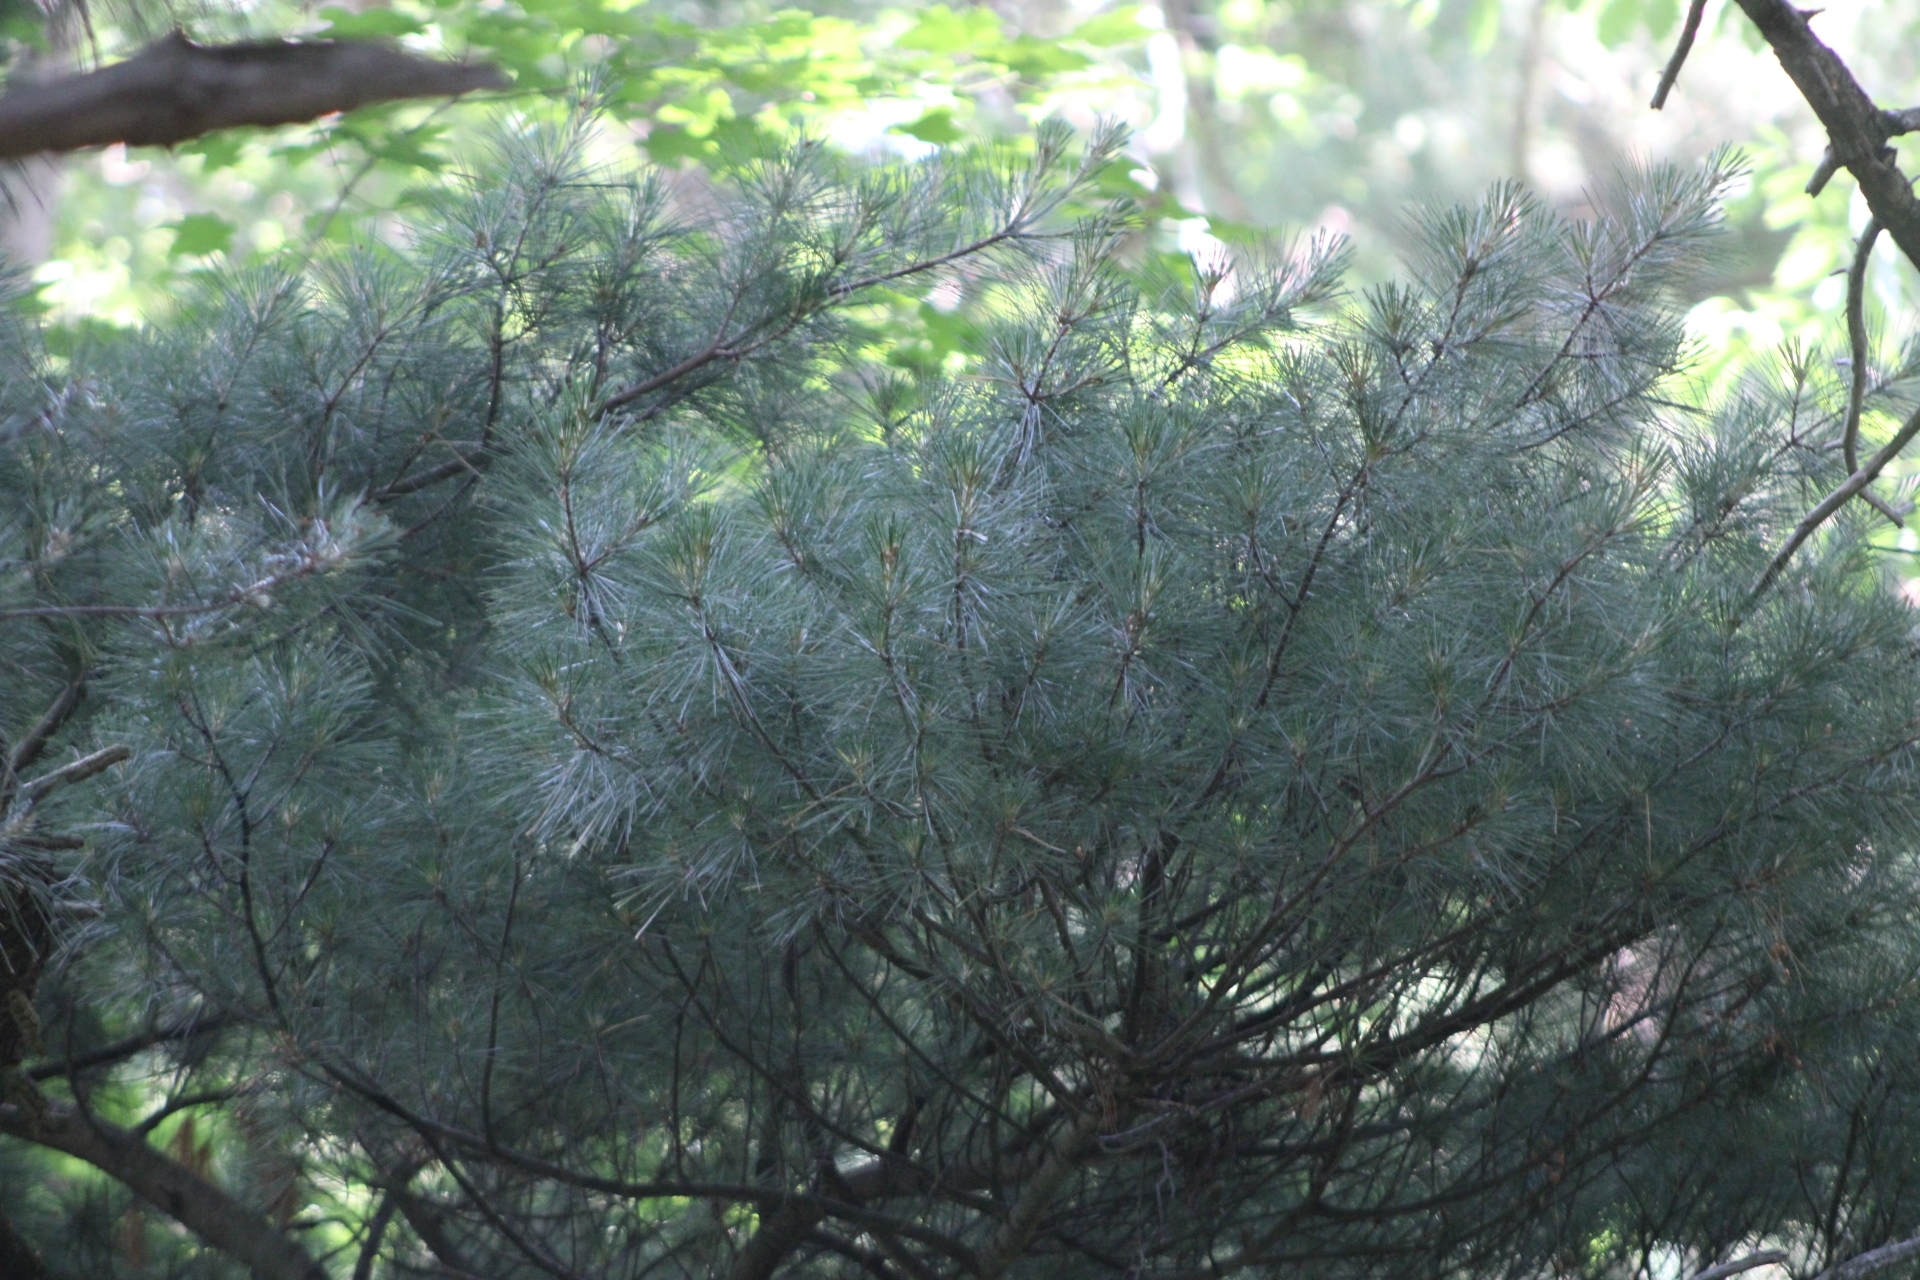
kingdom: Plantae
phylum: Tracheophyta
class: Pinopsida
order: Pinales
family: Pinaceae
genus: Pinus
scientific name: Pinus strobus
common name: Weymouth pine
